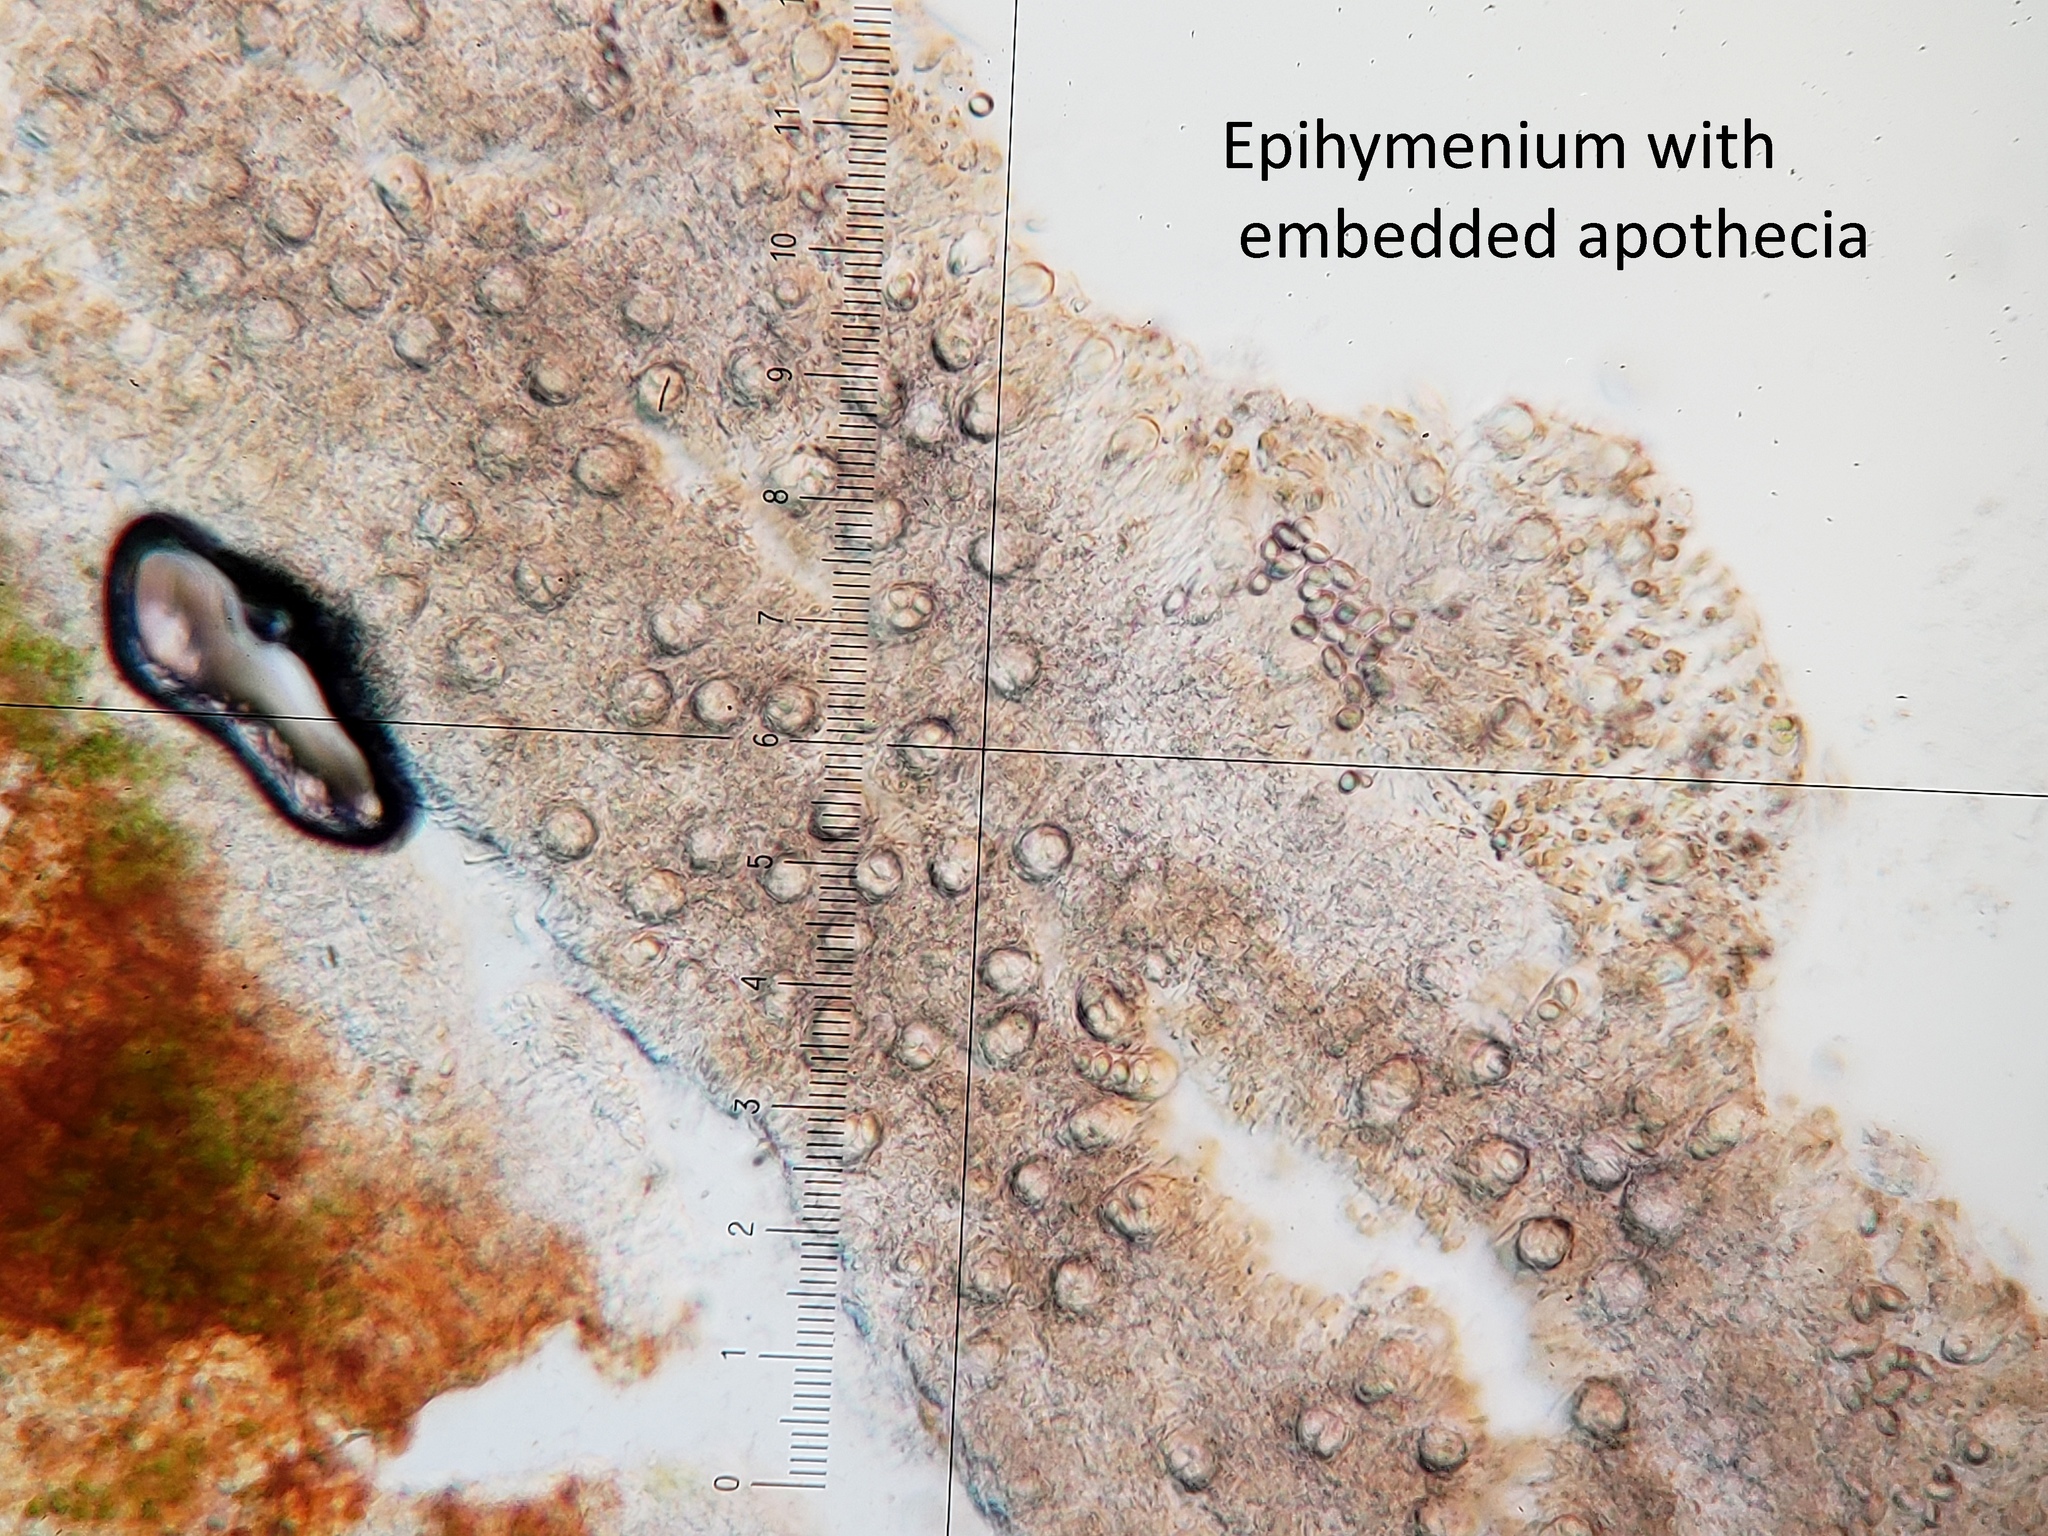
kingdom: Fungi
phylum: Ascomycota
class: Lecanoromycetes
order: Lecanorales
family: Parmeliaceae
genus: Parmelia
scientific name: Parmelia squarrosa
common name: Bottle brush shield lichen
